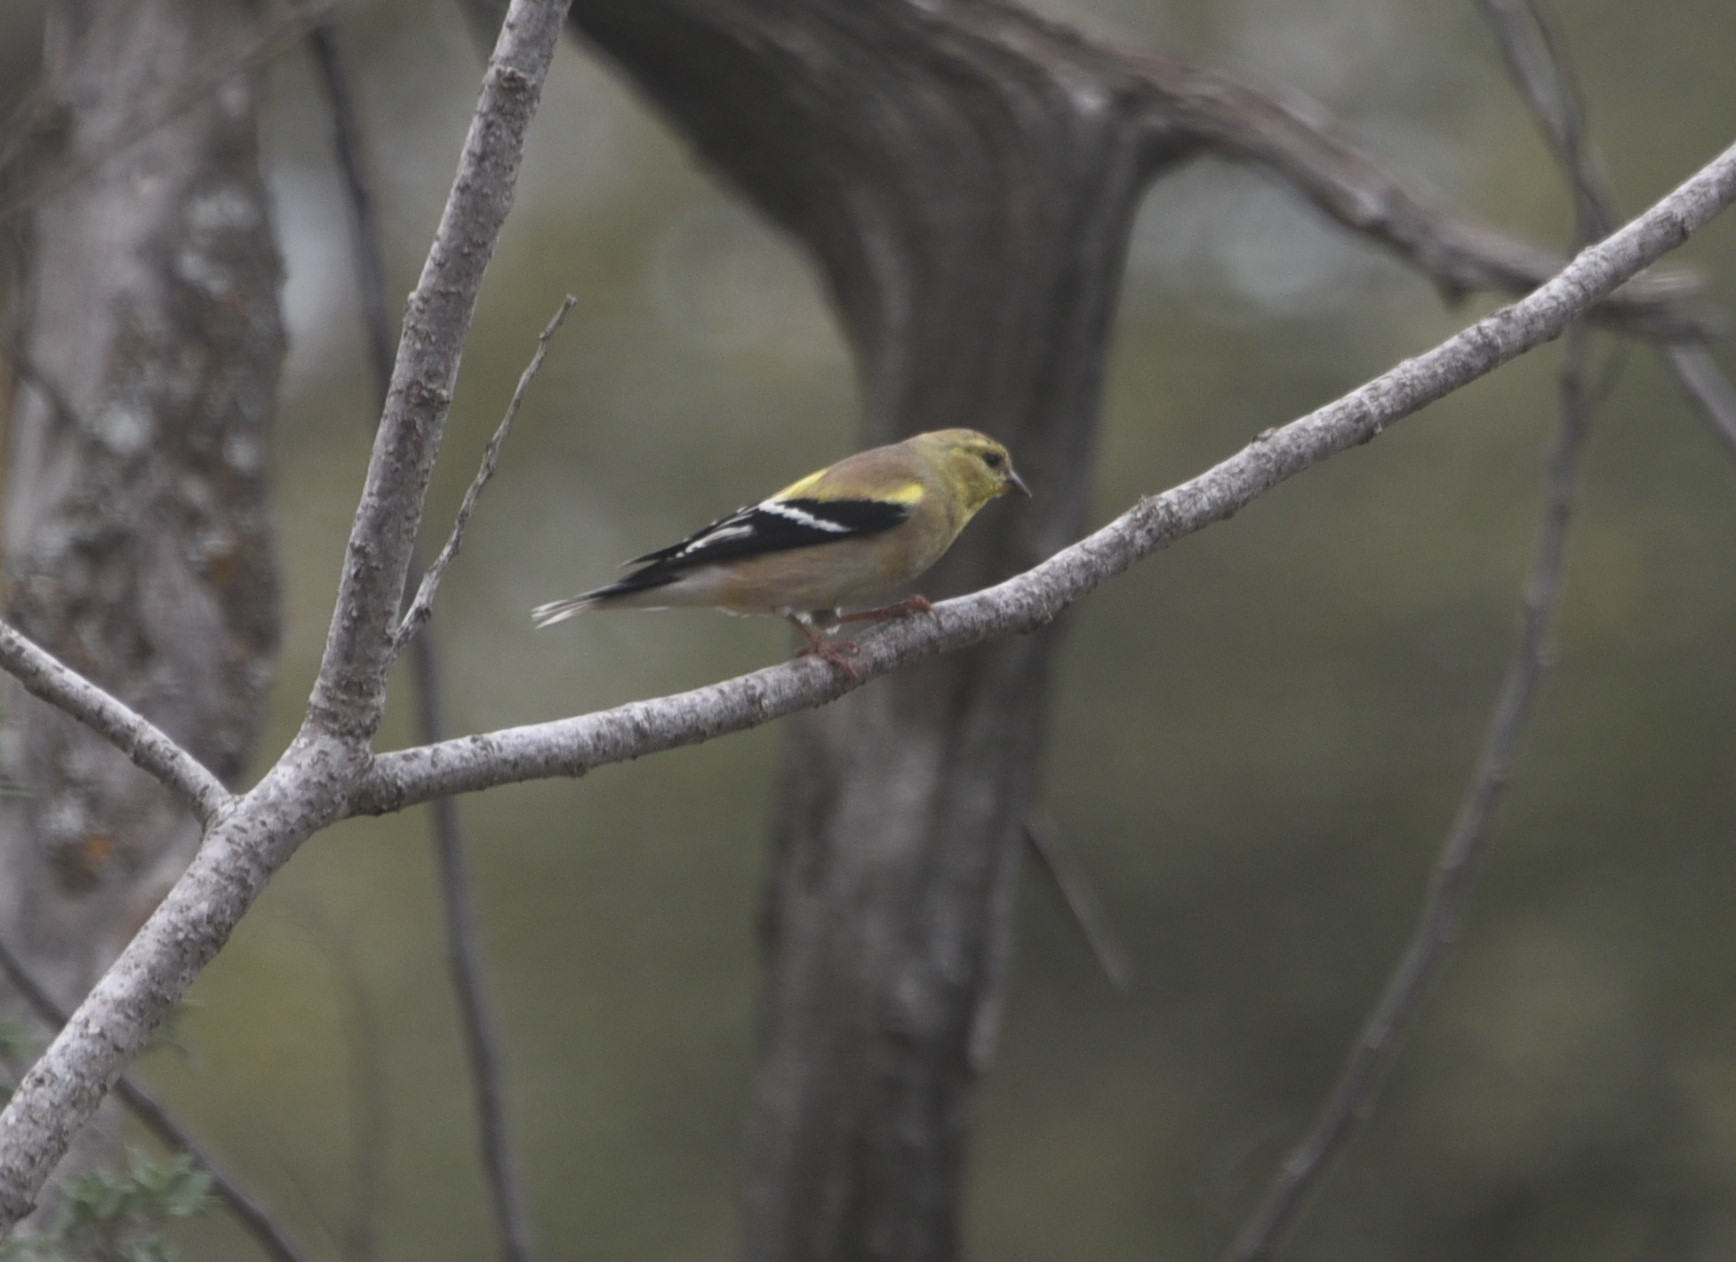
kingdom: Animalia
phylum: Chordata
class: Aves
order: Passeriformes
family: Fringillidae
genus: Spinus
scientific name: Spinus tristis
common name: American goldfinch
